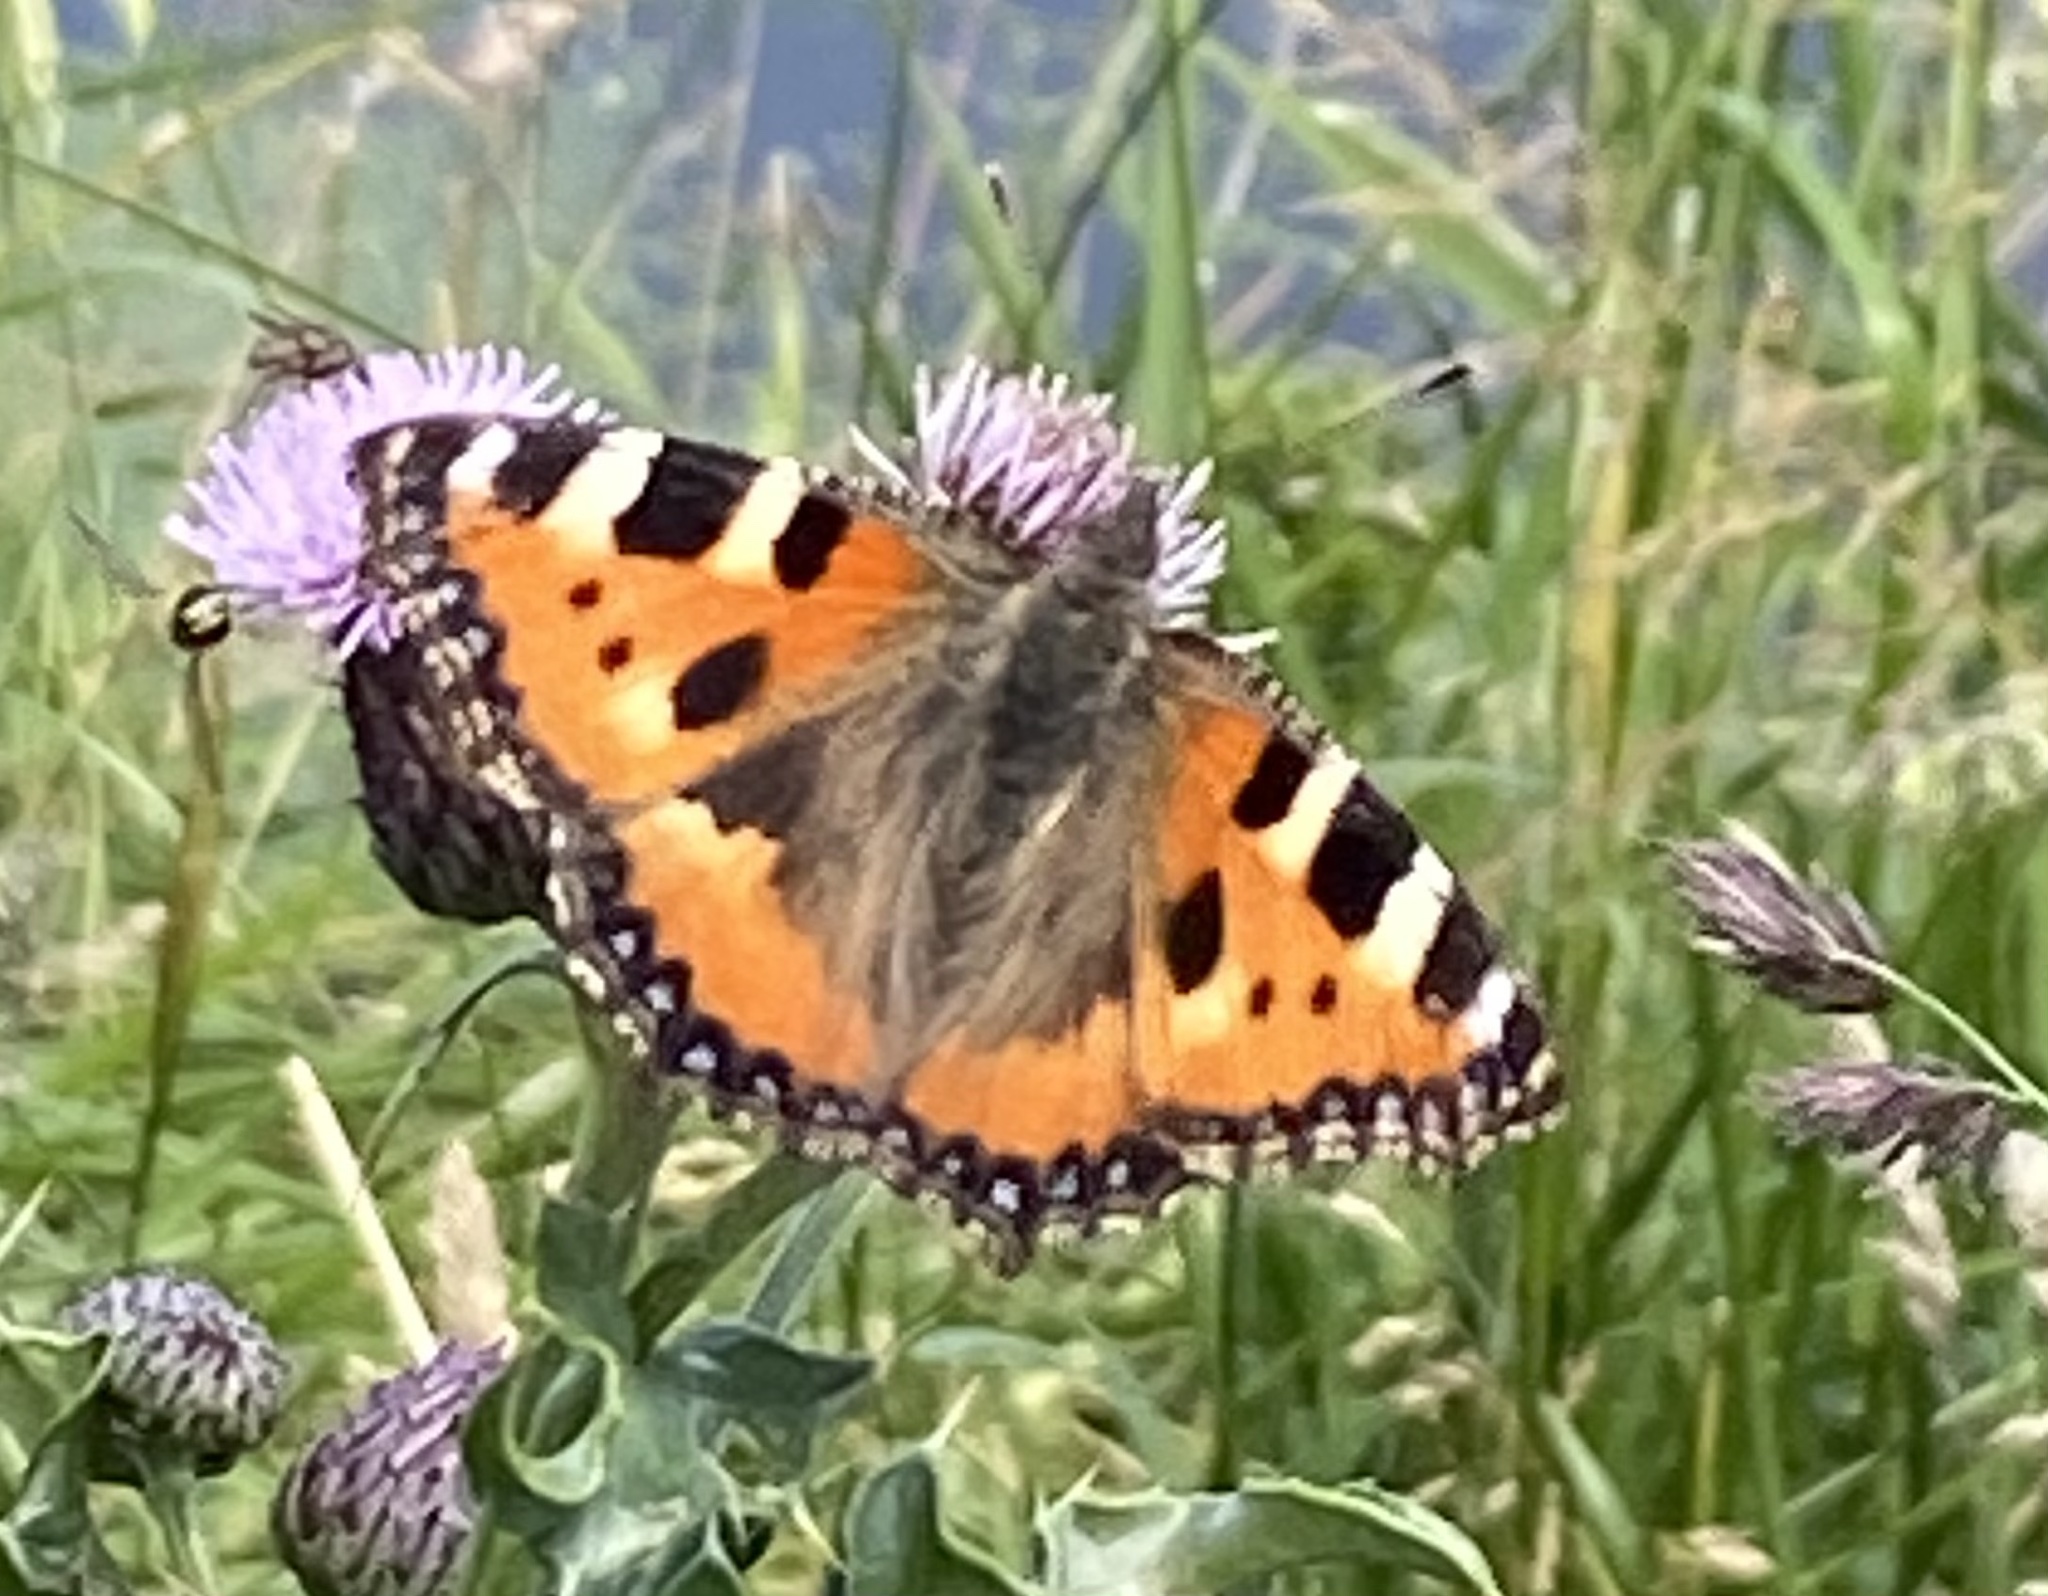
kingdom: Animalia
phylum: Arthropoda
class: Insecta
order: Lepidoptera
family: Nymphalidae
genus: Aglais
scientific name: Aglais urticae
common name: Small tortoiseshell
